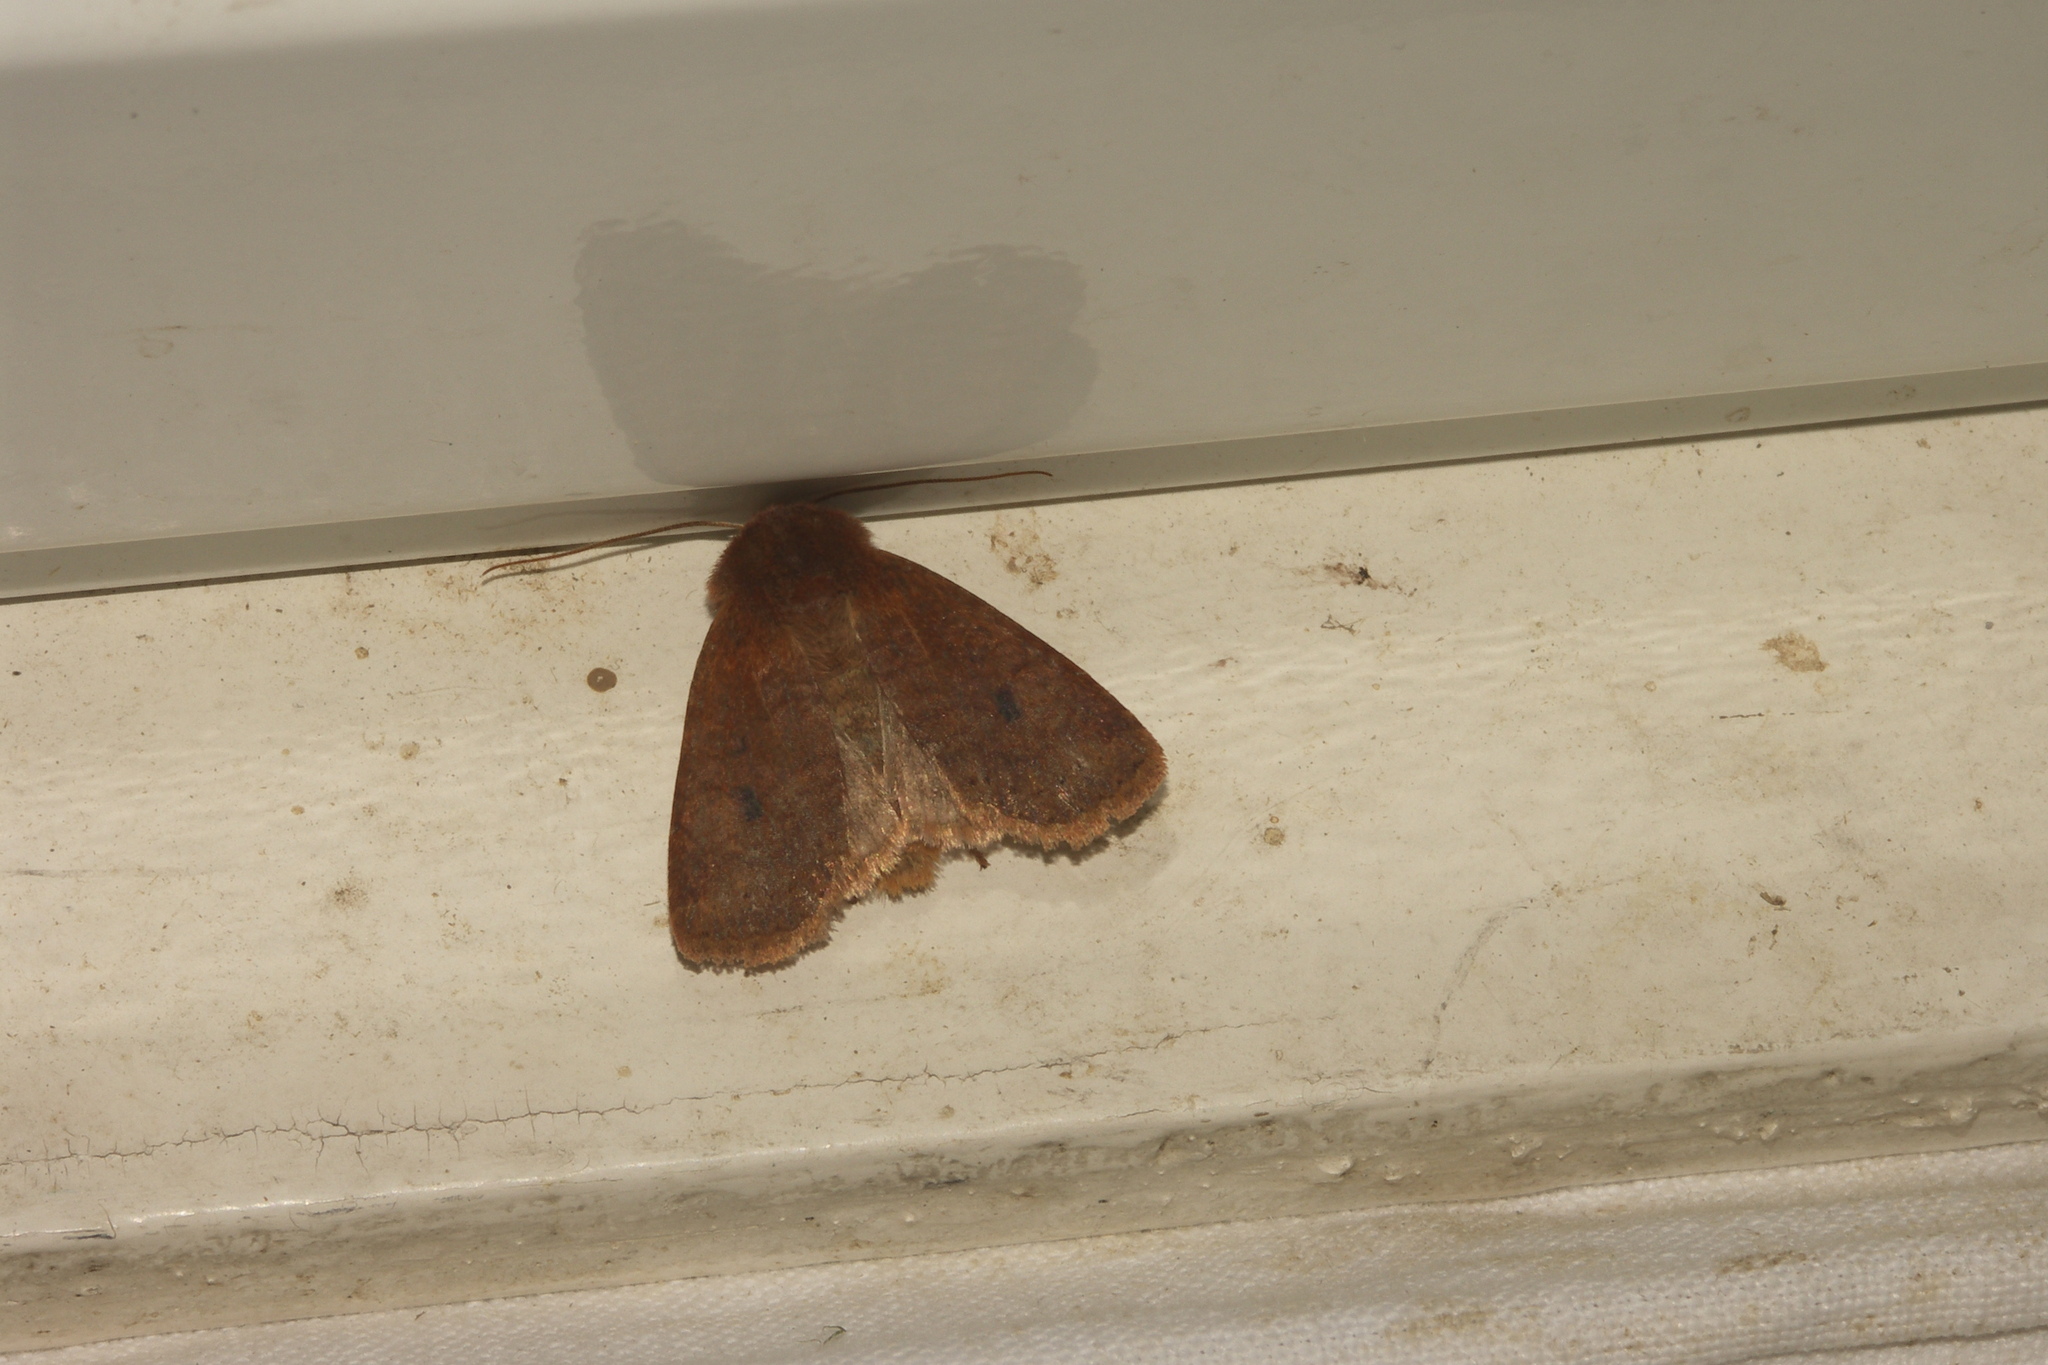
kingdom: Animalia
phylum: Arthropoda
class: Insecta
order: Lepidoptera
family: Noctuidae
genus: Conistra
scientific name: Conistra vaccinii
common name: Chestnut
